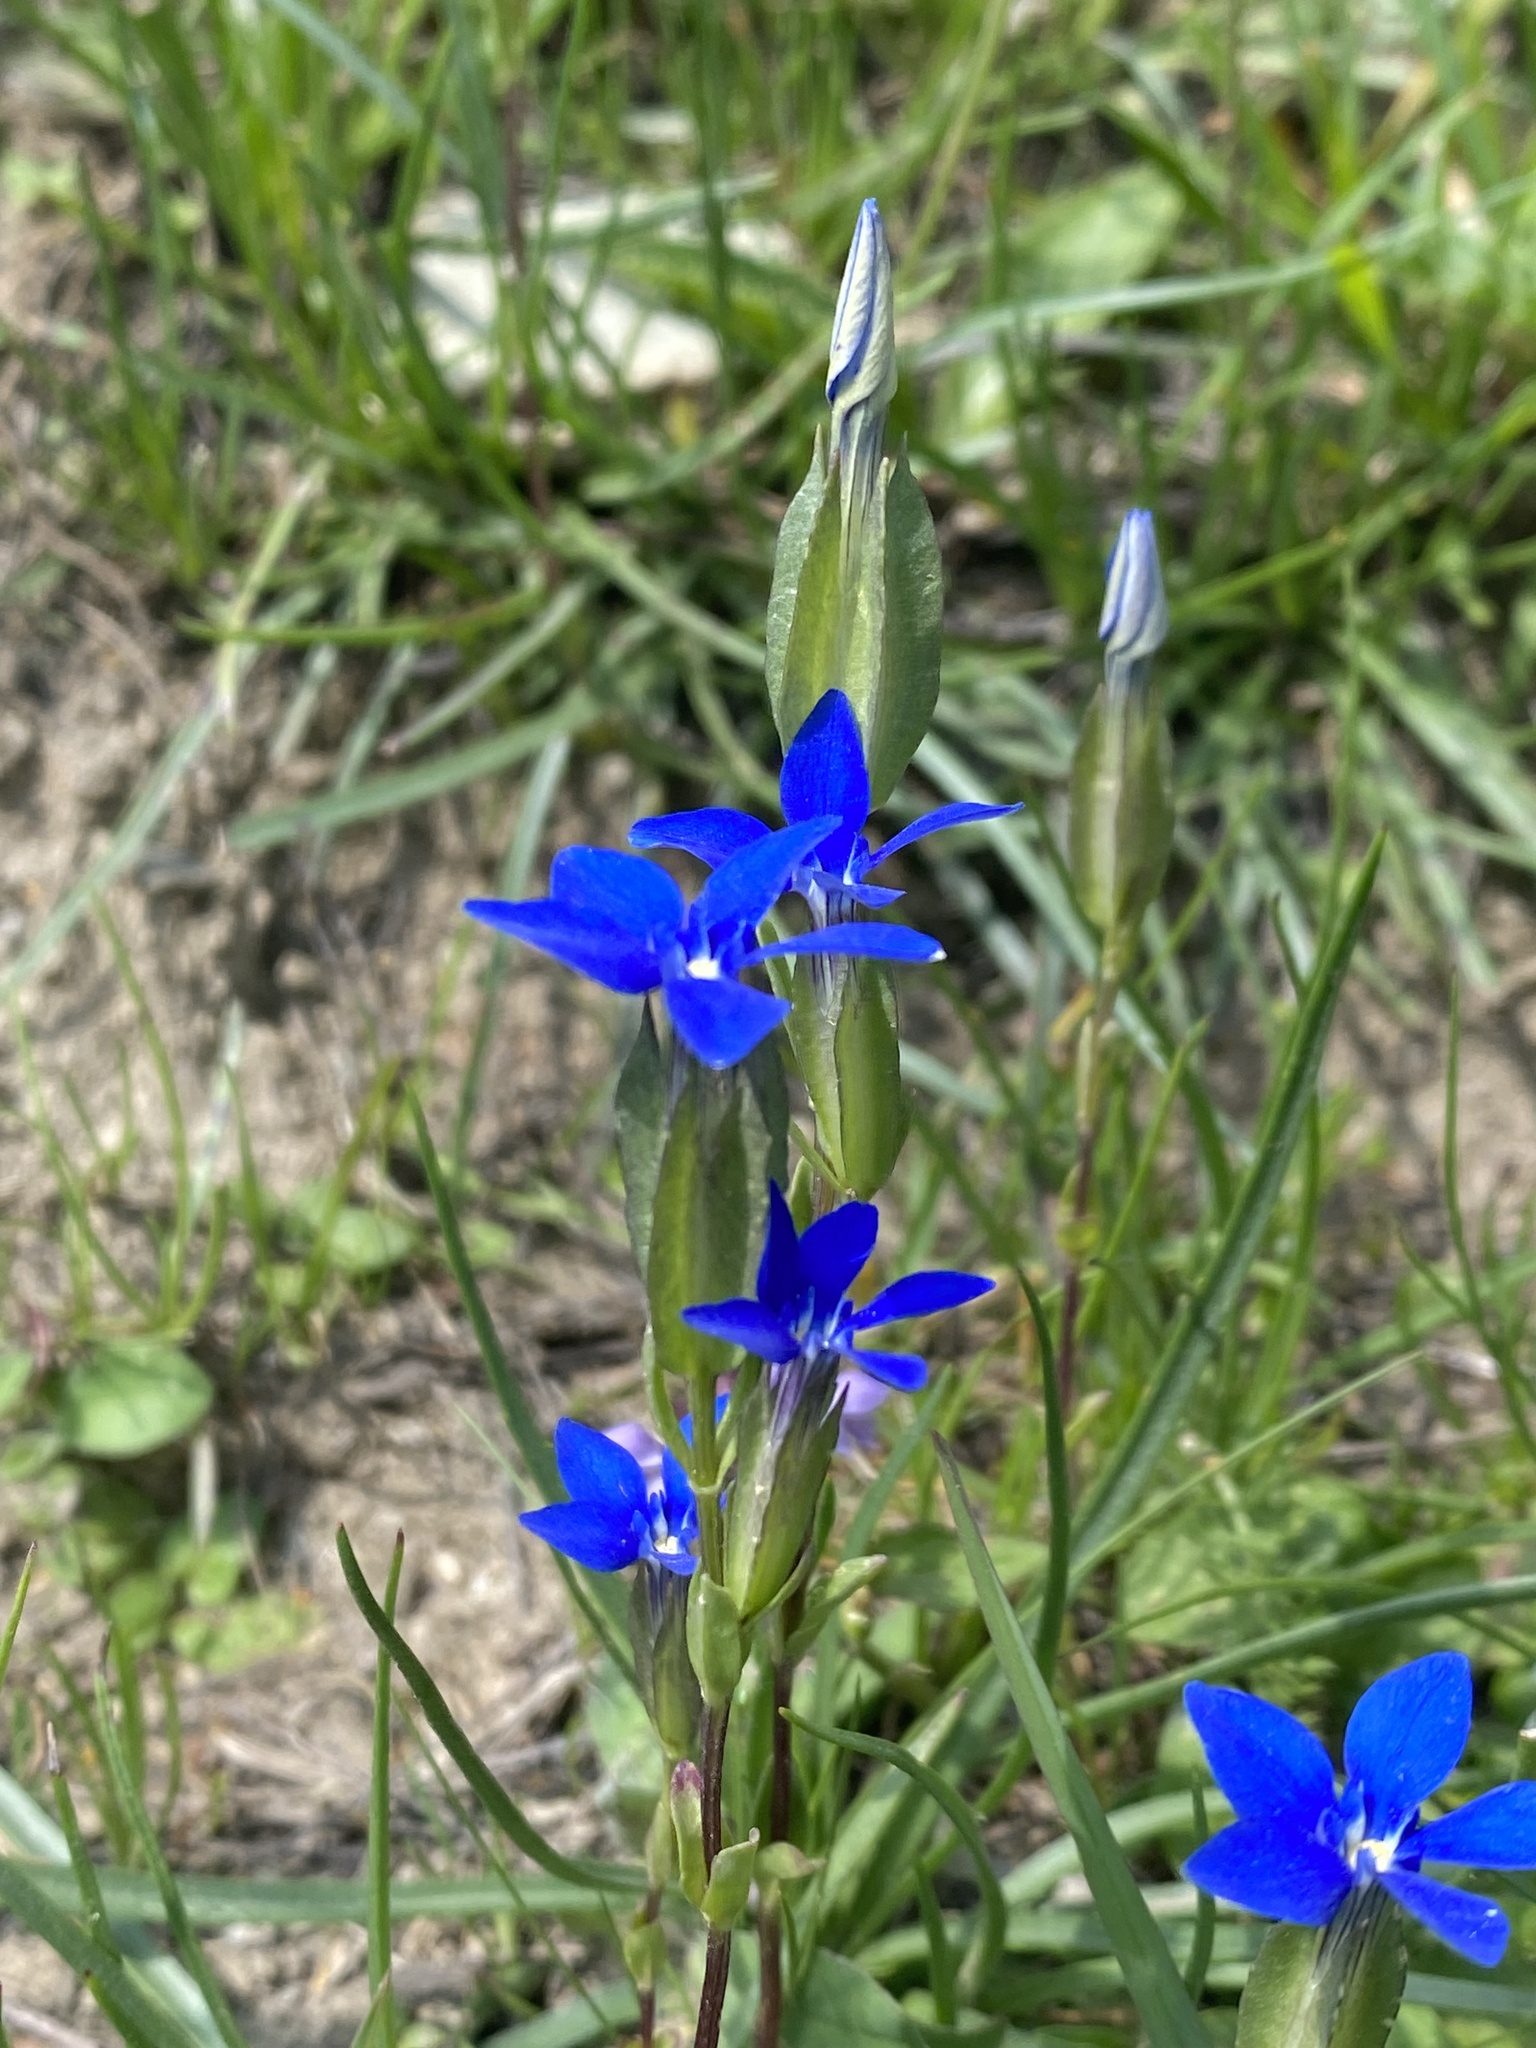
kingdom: Plantae
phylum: Tracheophyta
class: Magnoliopsida
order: Gentianales
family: Gentianaceae
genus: Gentiana
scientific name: Gentiana utriculosa
